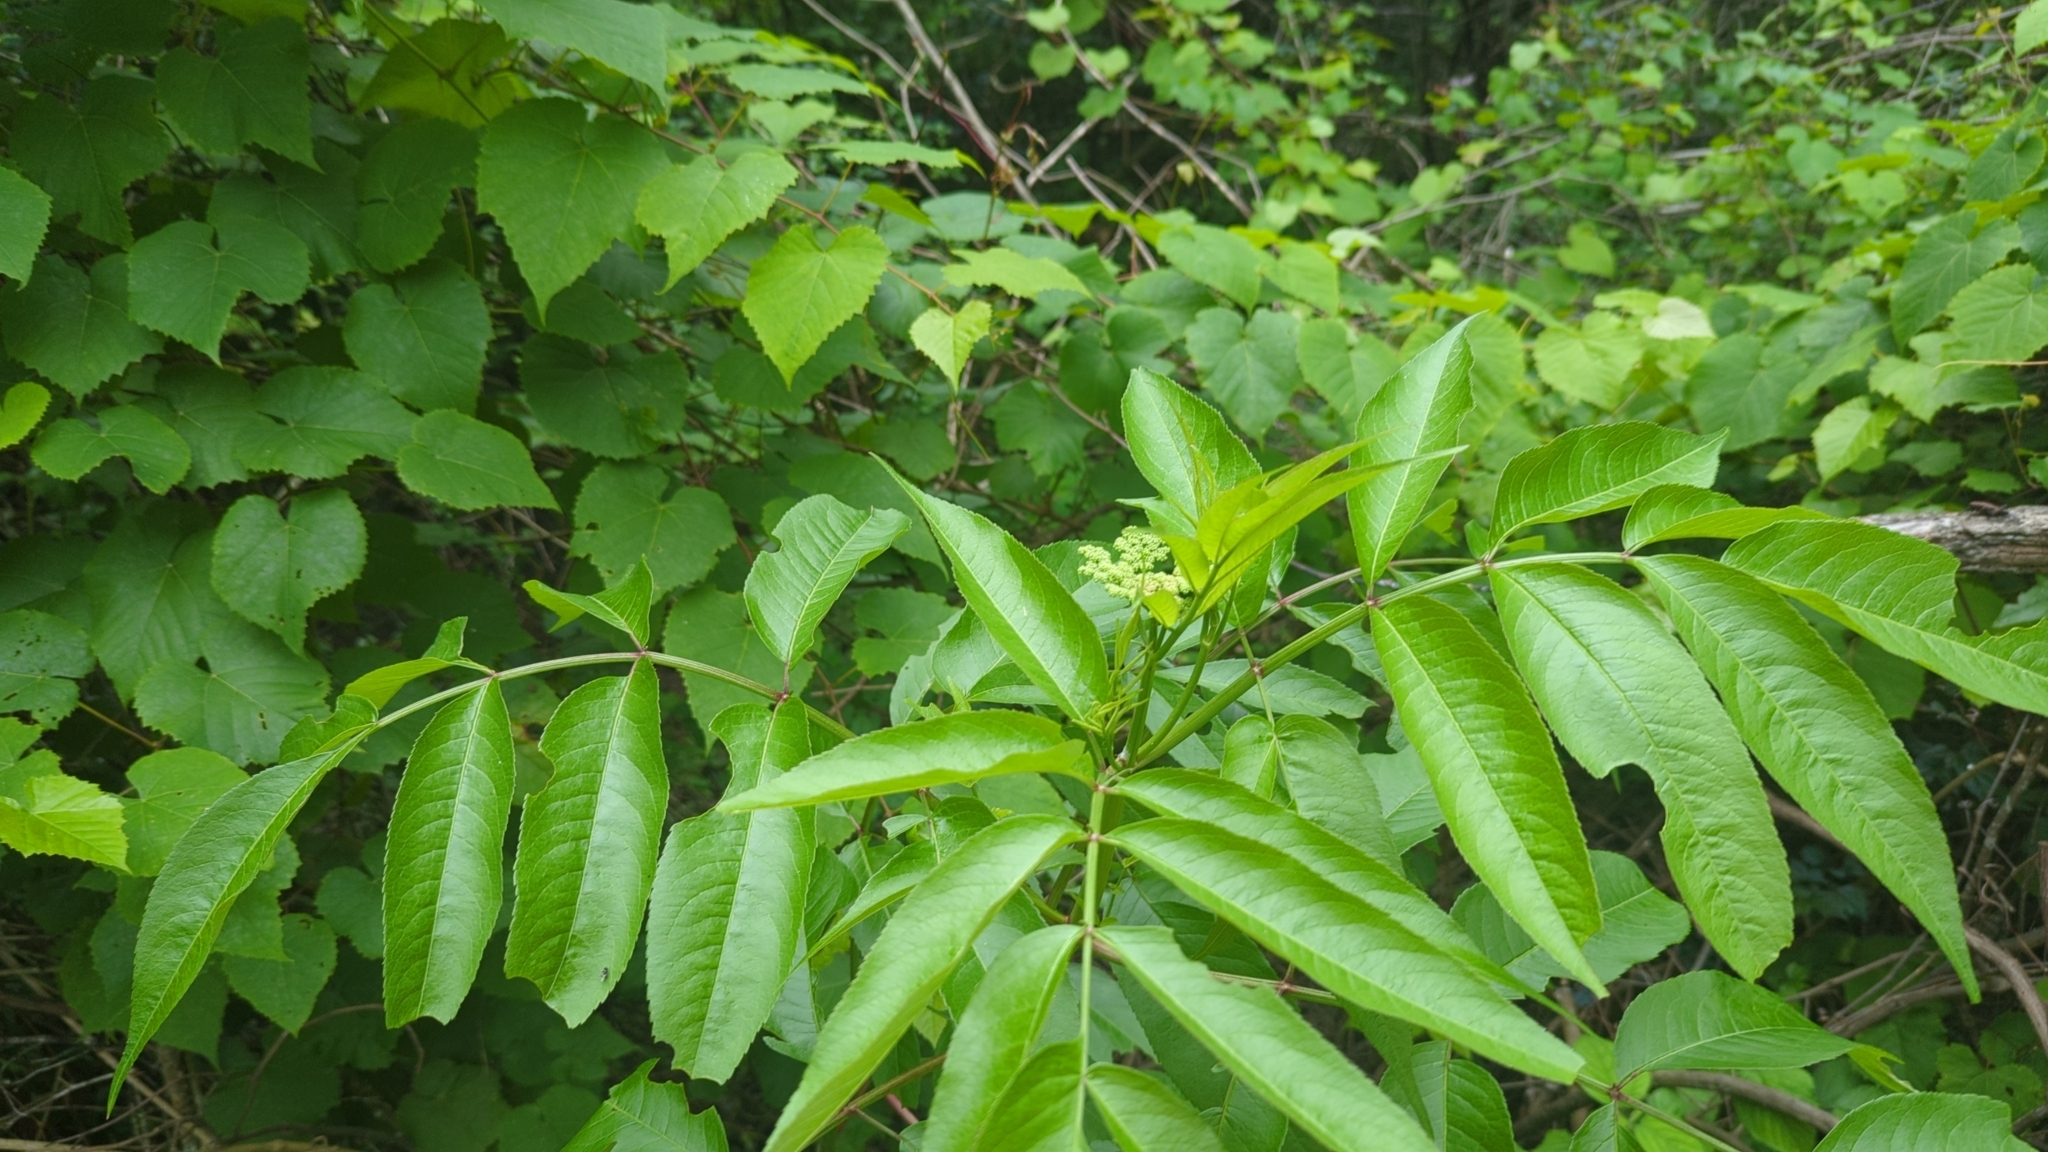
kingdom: Plantae
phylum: Tracheophyta
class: Magnoliopsida
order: Dipsacales
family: Viburnaceae
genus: Sambucus
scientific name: Sambucus canadensis
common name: American elder
